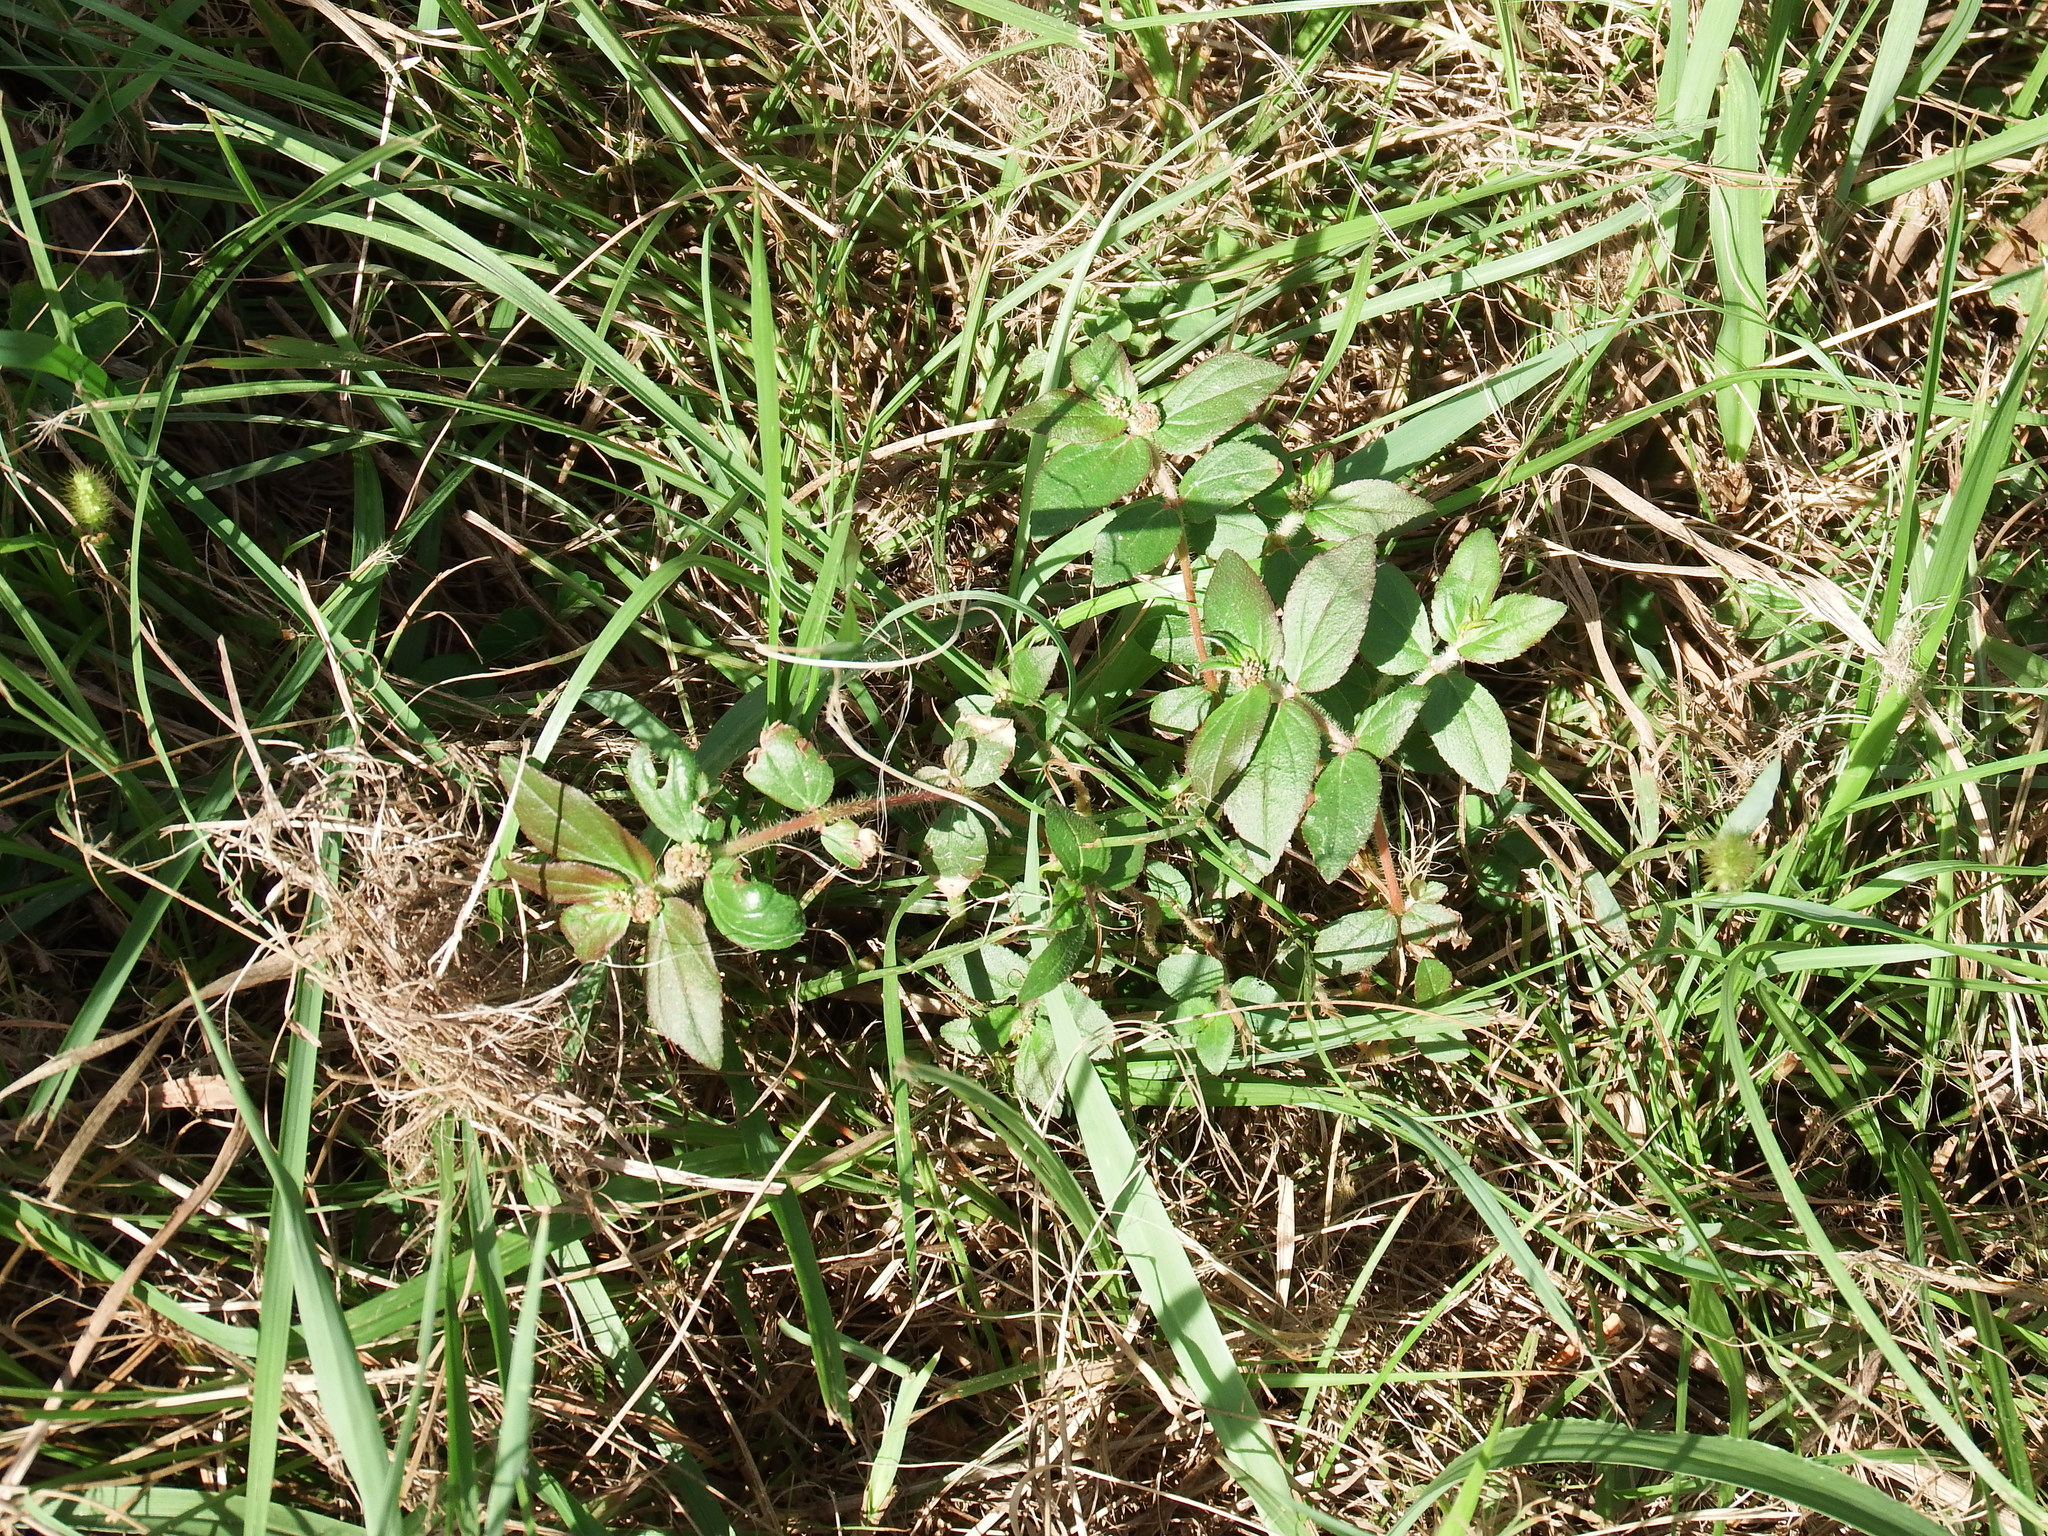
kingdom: Plantae
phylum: Tracheophyta
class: Magnoliopsida
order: Malpighiales
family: Euphorbiaceae
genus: Euphorbia
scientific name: Euphorbia hirta
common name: Pillpod sandmat
